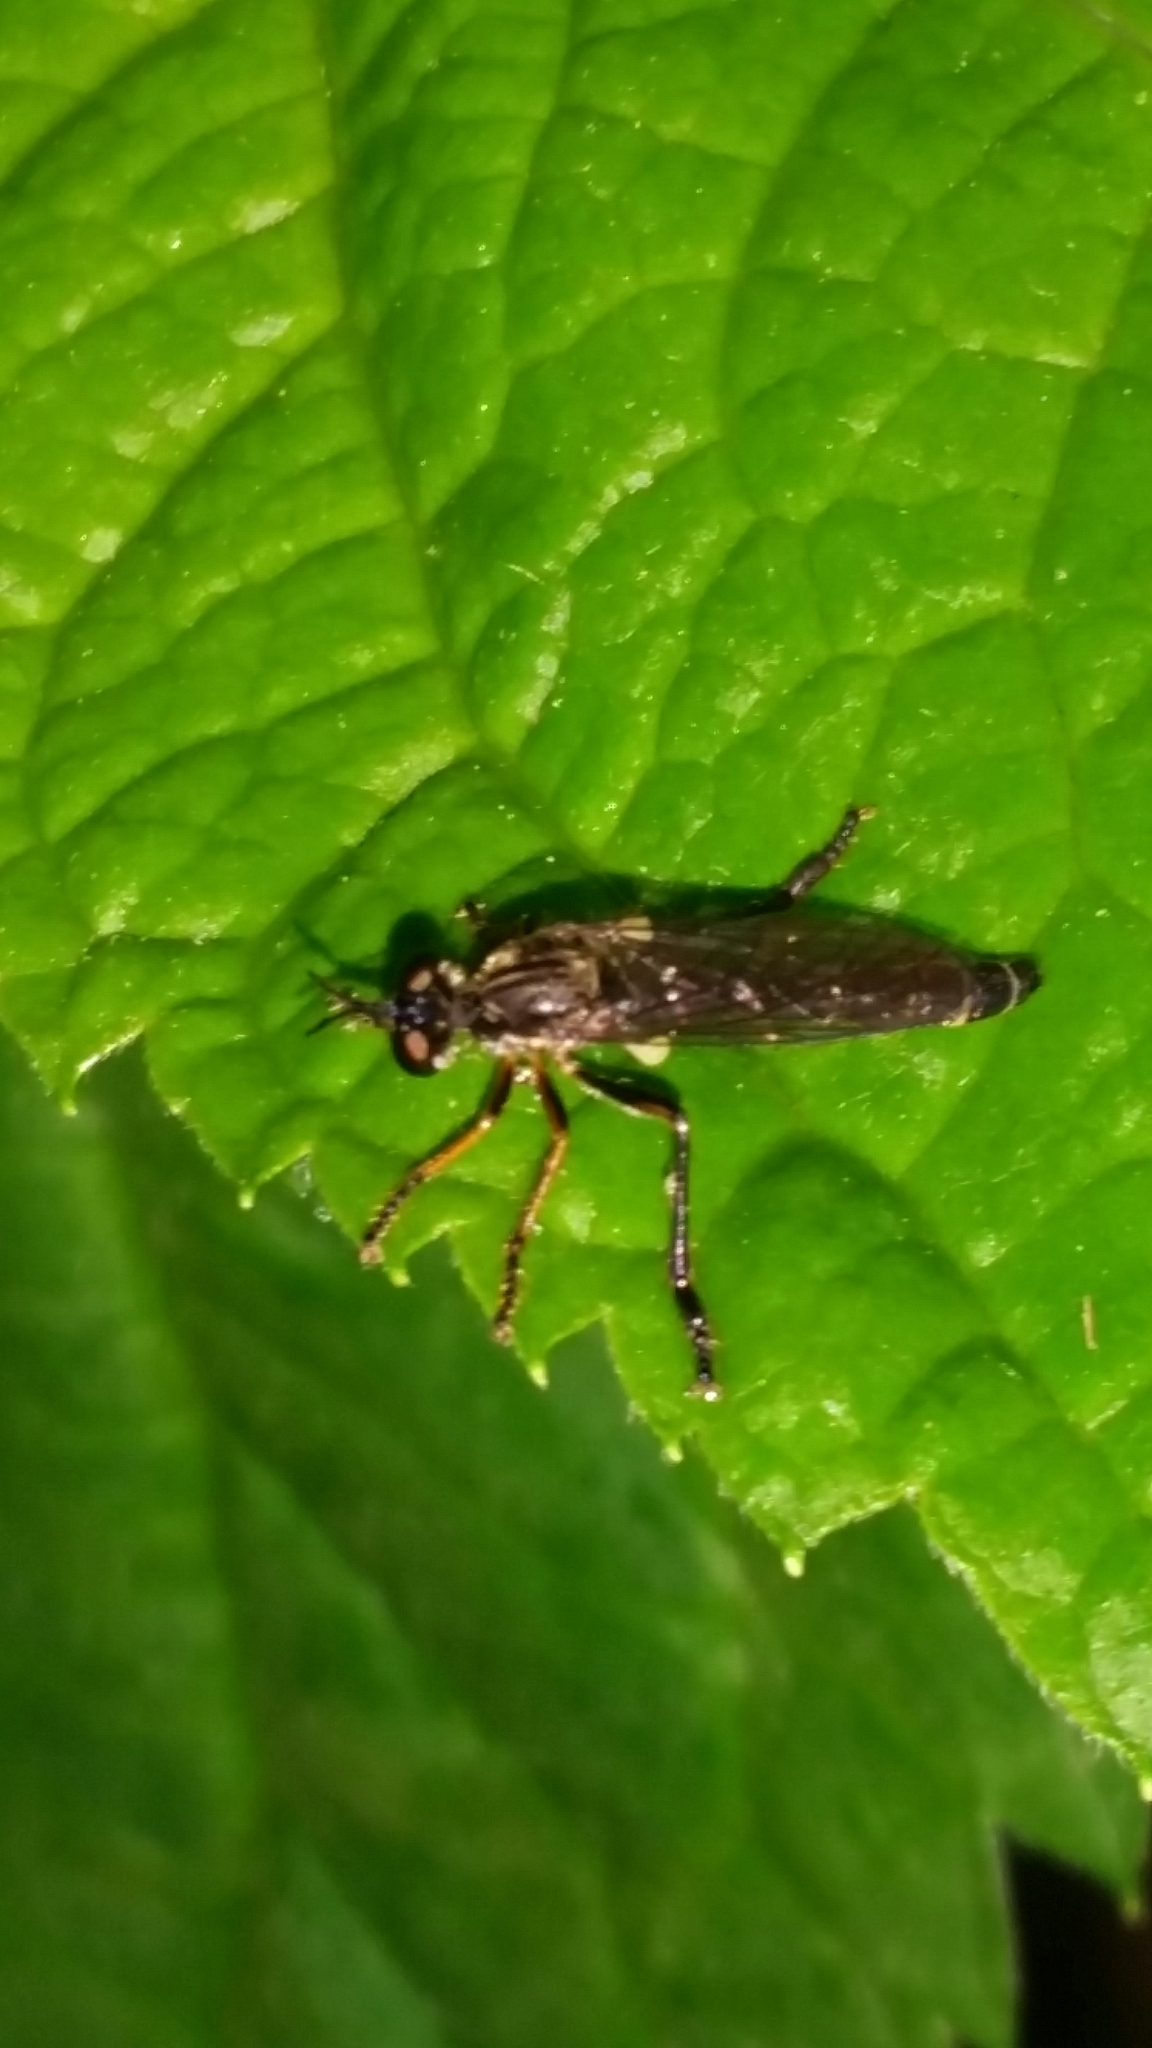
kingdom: Animalia
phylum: Arthropoda
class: Insecta
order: Diptera
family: Asilidae
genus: Dioctria
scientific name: Dioctria hyalipennis
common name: Stripe-legged robberfly
